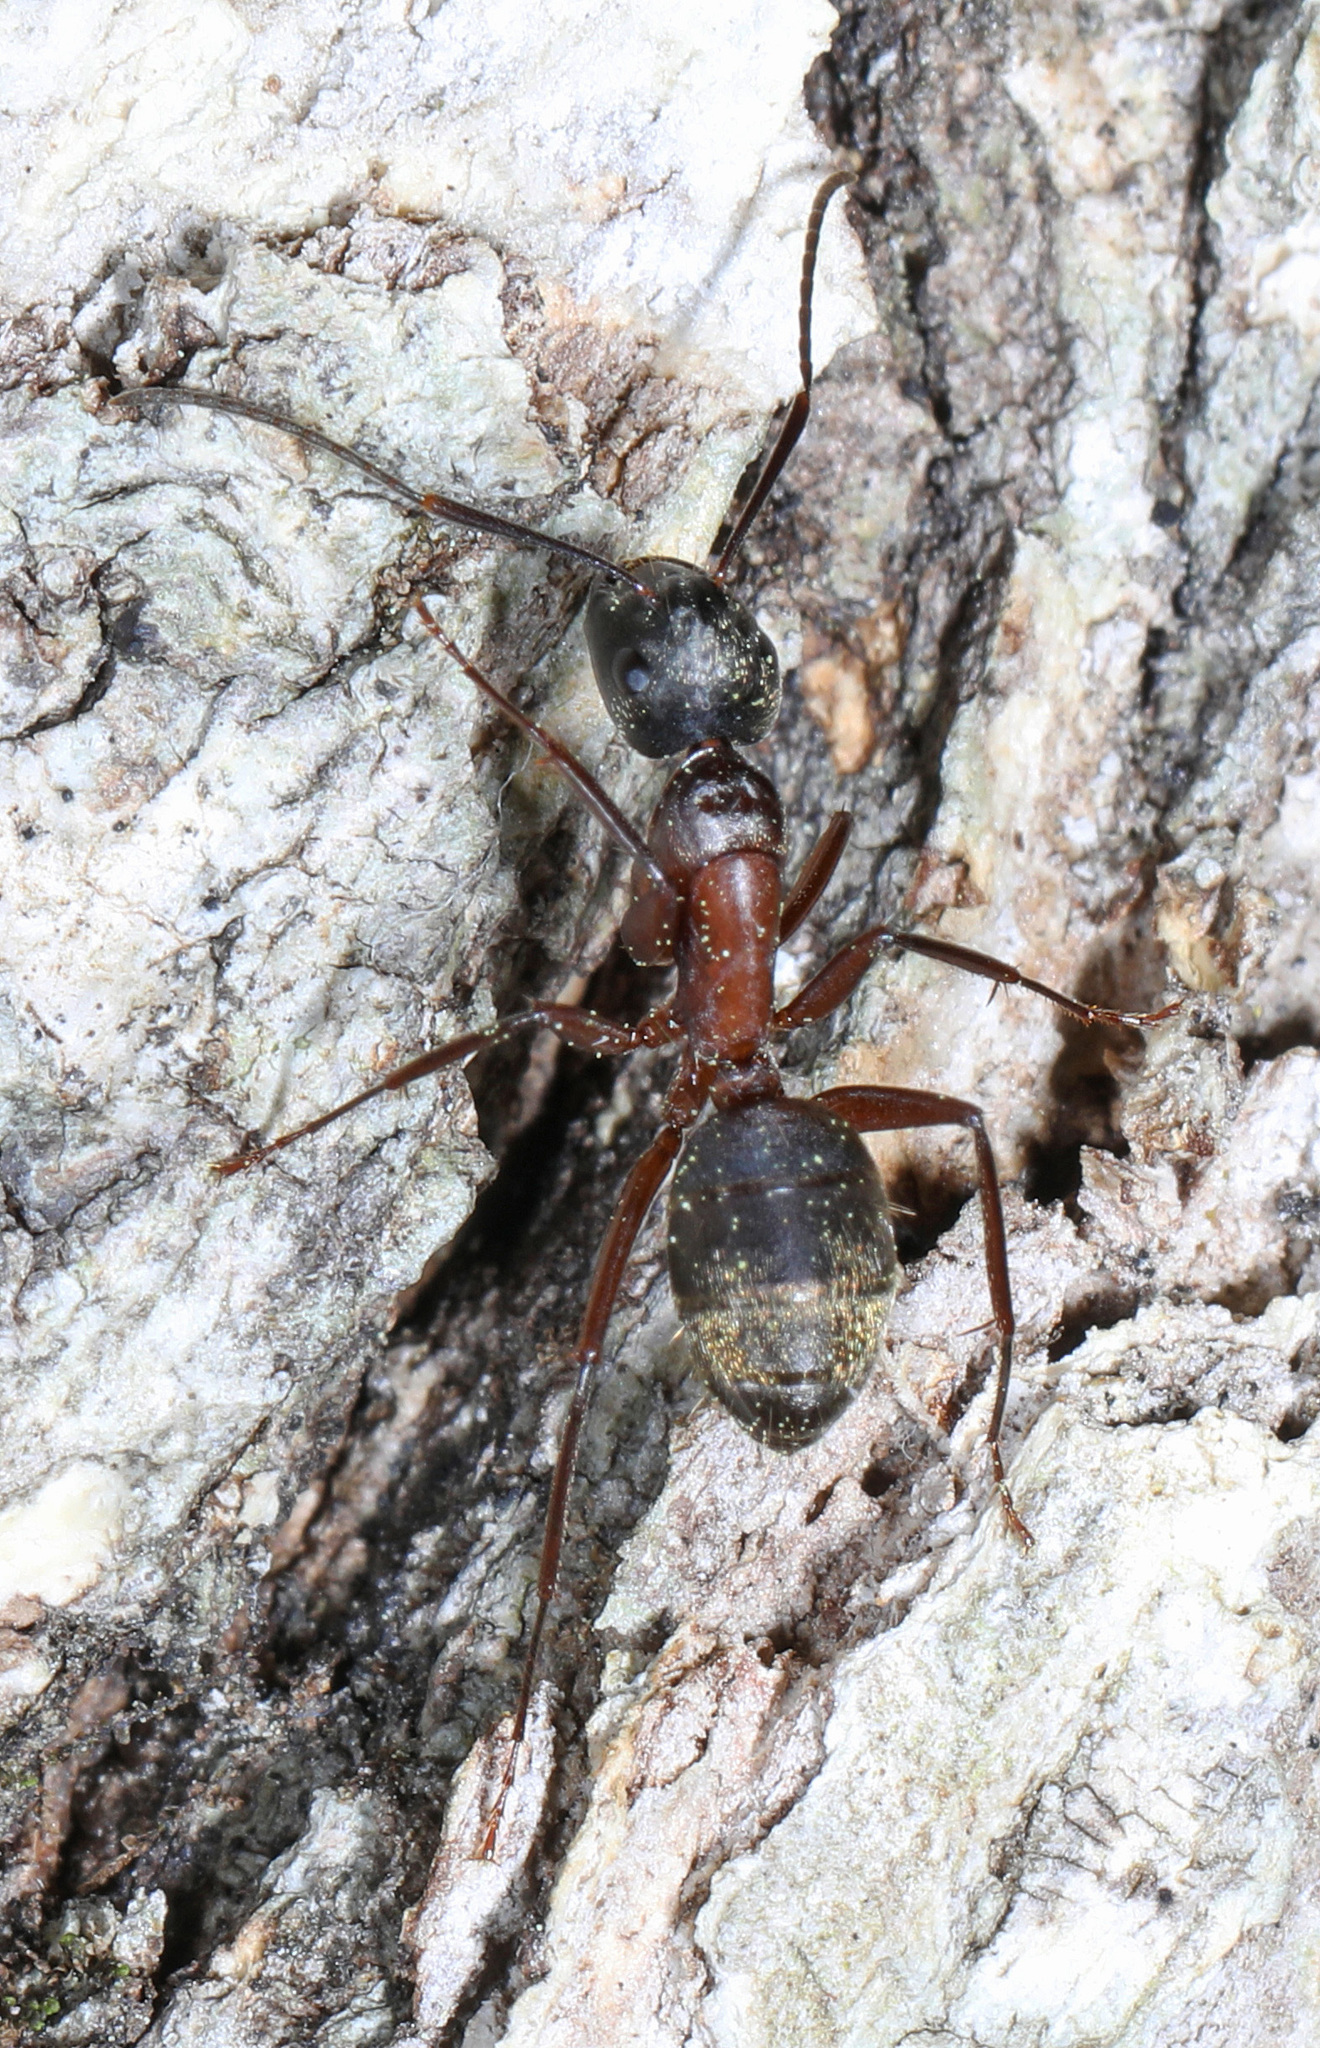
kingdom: Animalia
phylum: Arthropoda
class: Insecta
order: Hymenoptera
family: Formicidae
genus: Camponotus
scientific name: Camponotus chromaiodes
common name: Red carpenter ant
